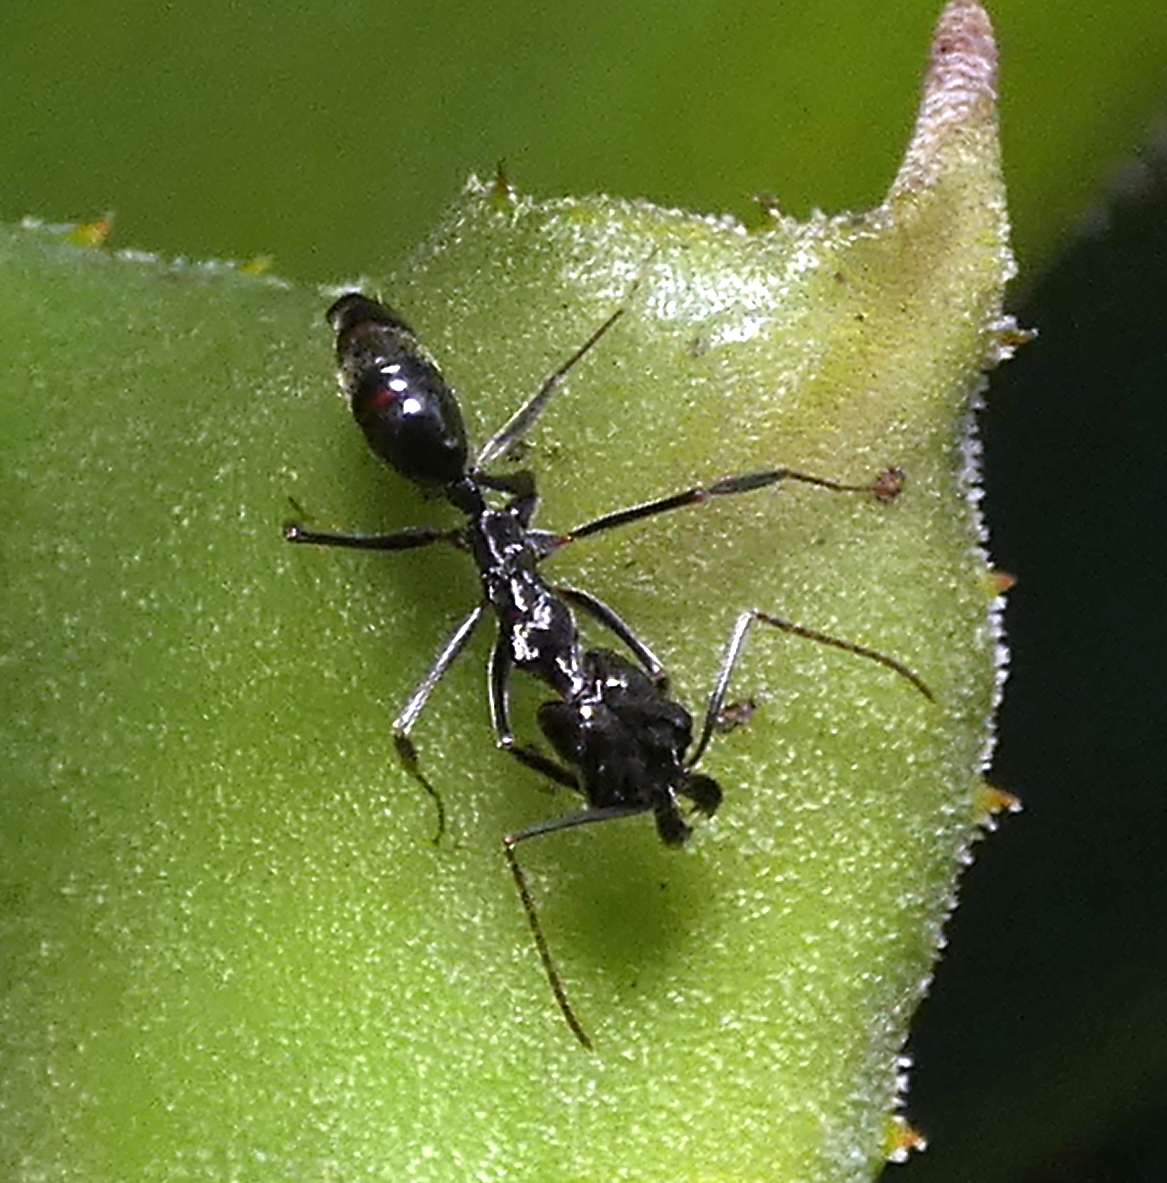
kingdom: Animalia
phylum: Arthropoda
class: Insecta
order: Hymenoptera
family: Formicidae
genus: Odontomachus
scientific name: Odontomachus
